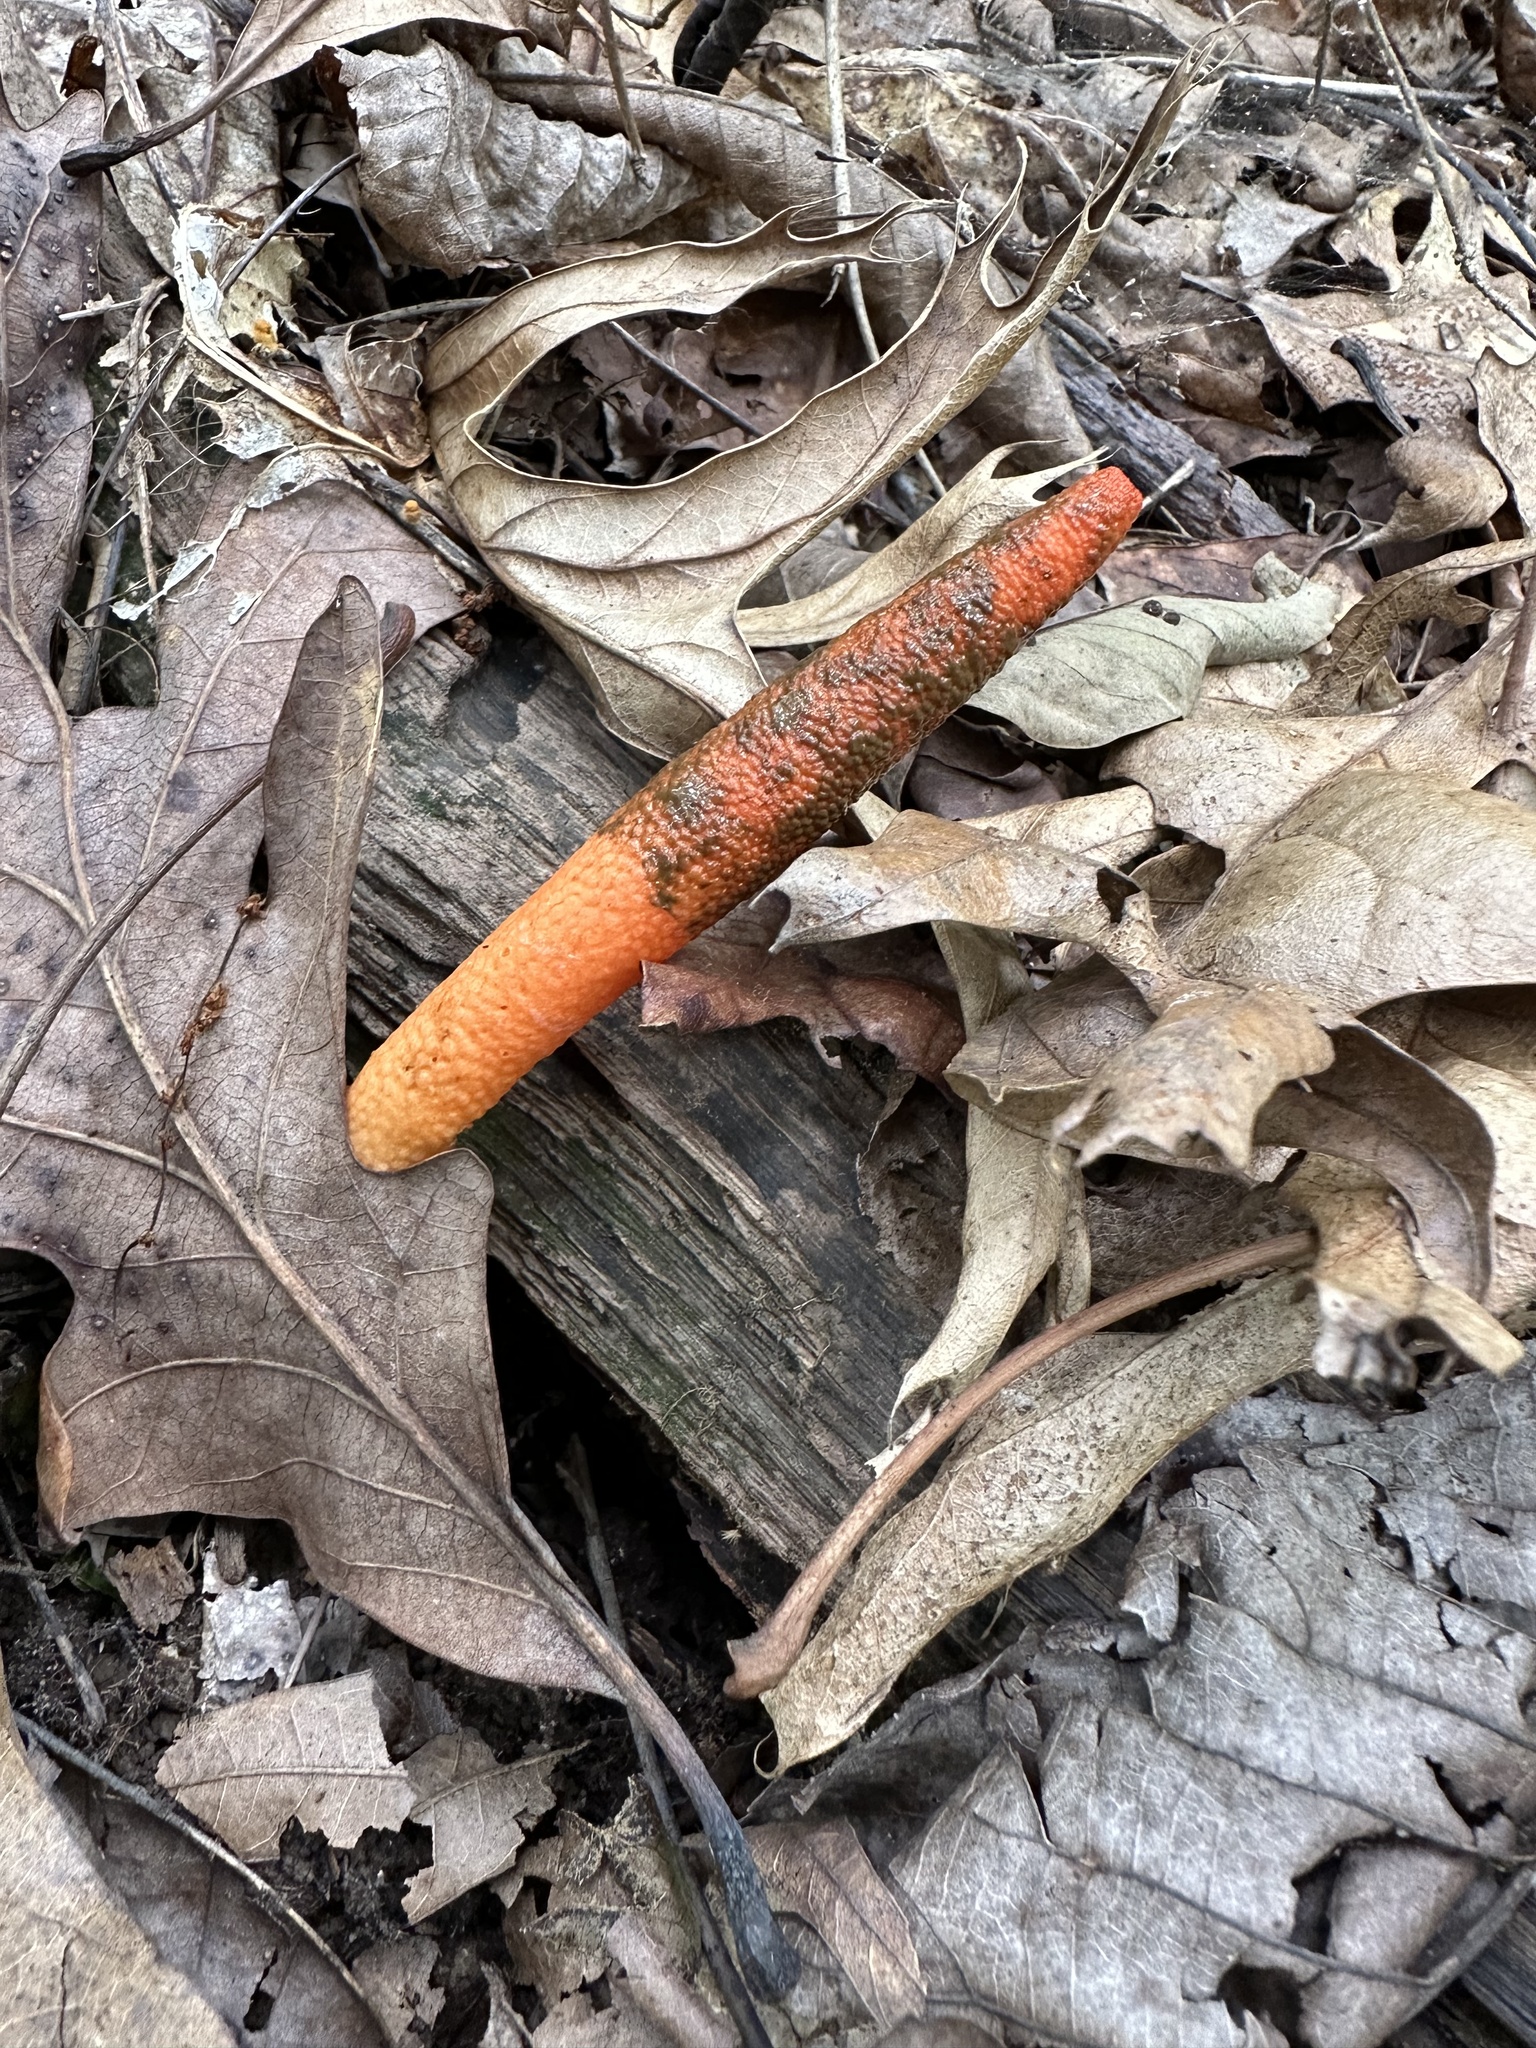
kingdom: Fungi
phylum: Basidiomycota
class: Agaricomycetes
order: Phallales
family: Phallaceae
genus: Mutinus
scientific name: Mutinus elegans
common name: Devil's dipstick
